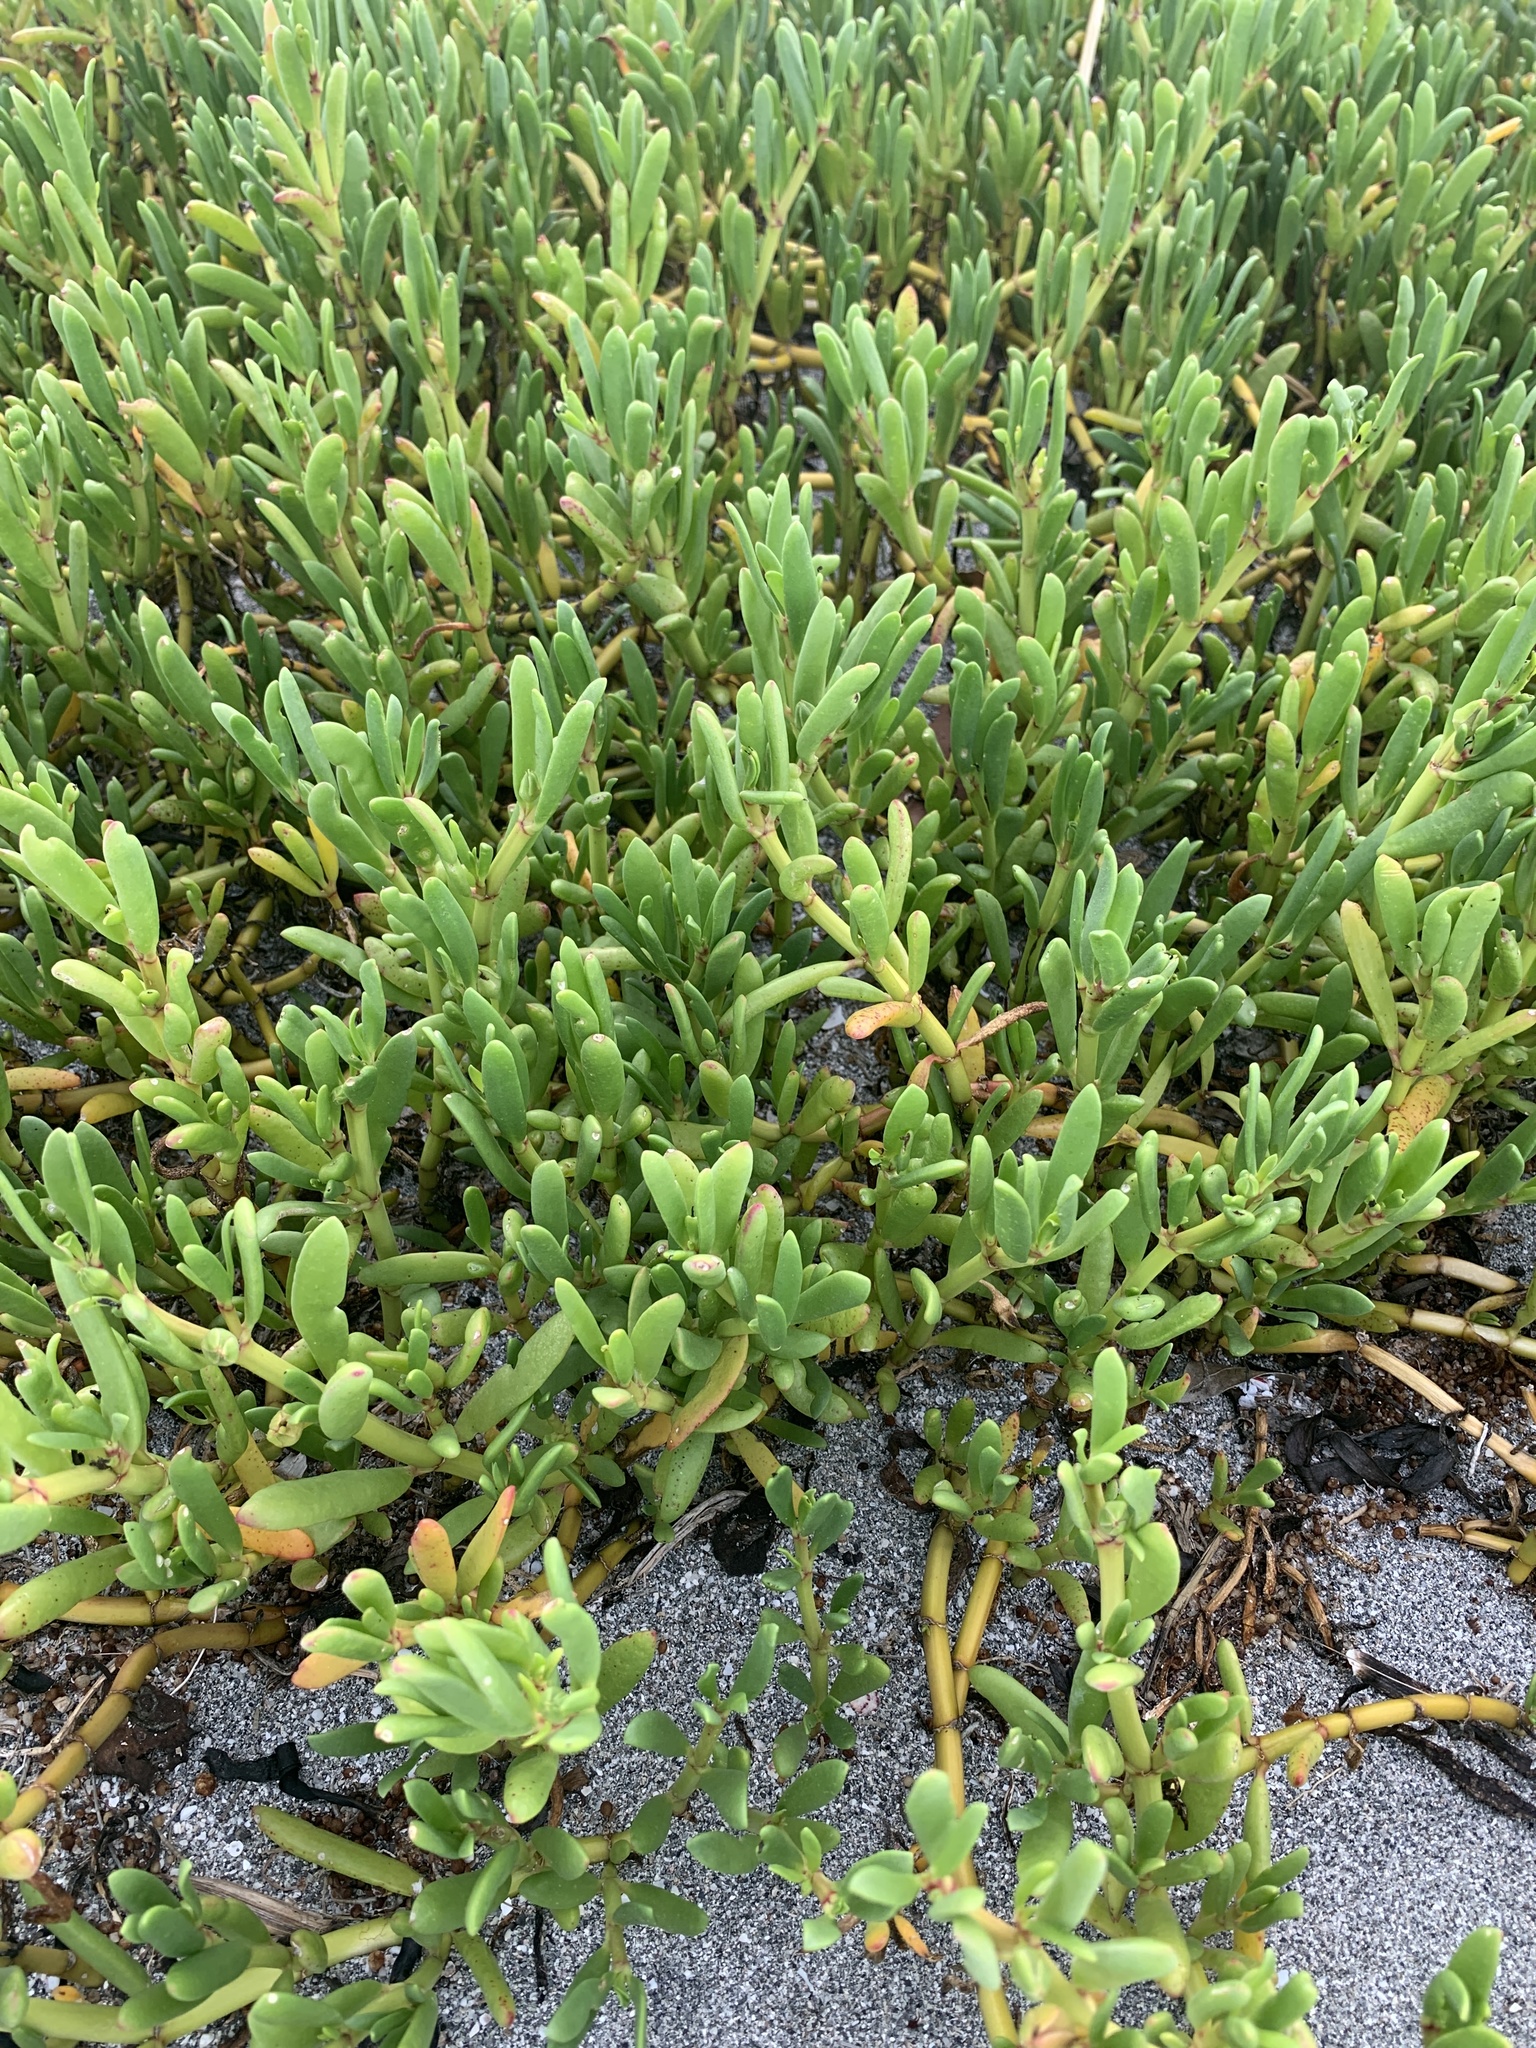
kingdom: Plantae
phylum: Tracheophyta
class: Magnoliopsida
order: Caryophyllales
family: Aizoaceae
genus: Sesuvium
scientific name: Sesuvium portulacastrum
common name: Sea-purslane
